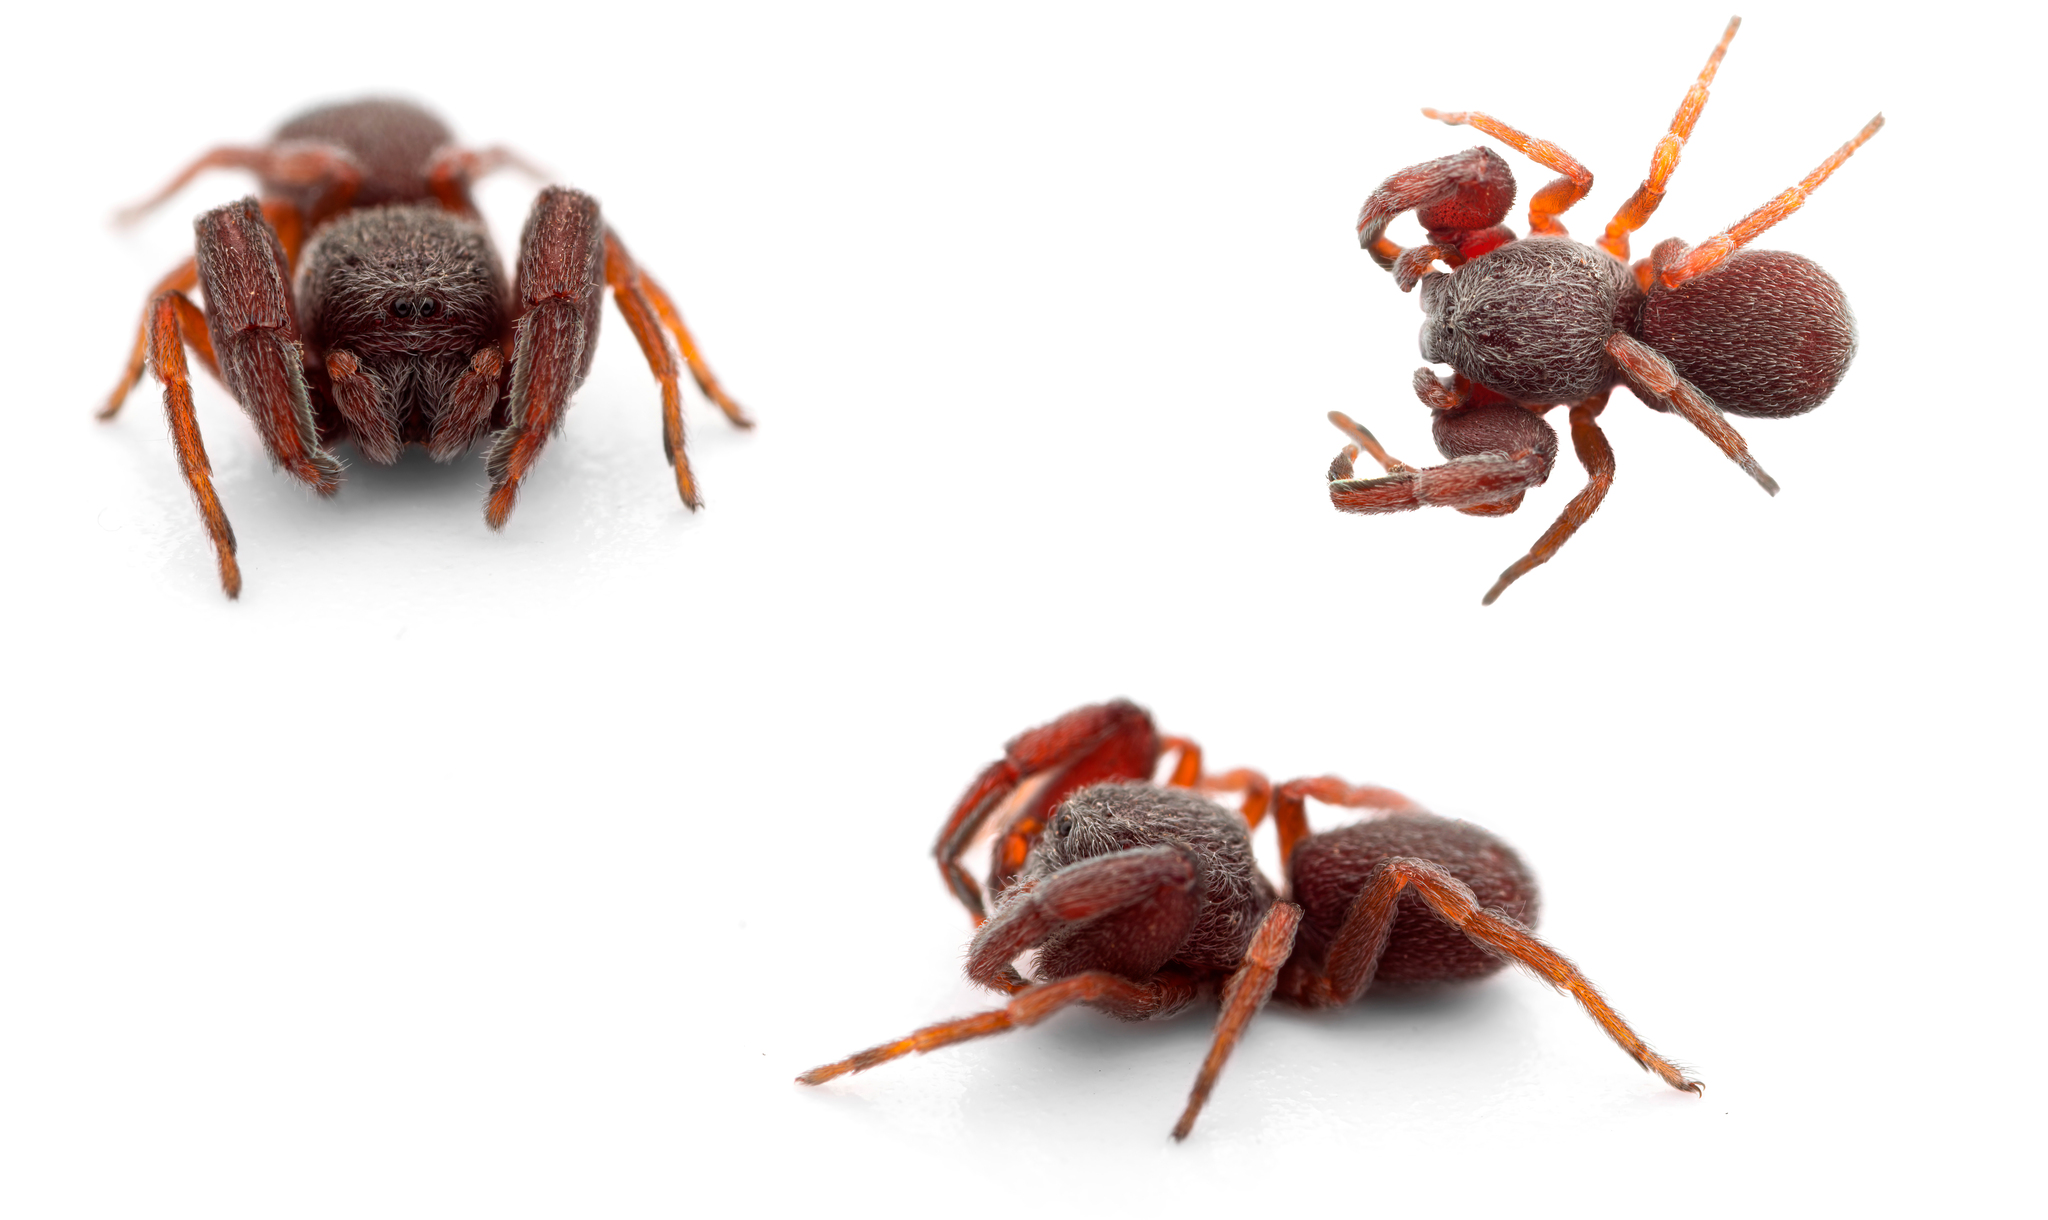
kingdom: Animalia
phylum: Arthropoda
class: Arachnida
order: Araneae
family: Palpimanidae
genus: Palpimanus
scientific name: Palpimanus gibbulus
